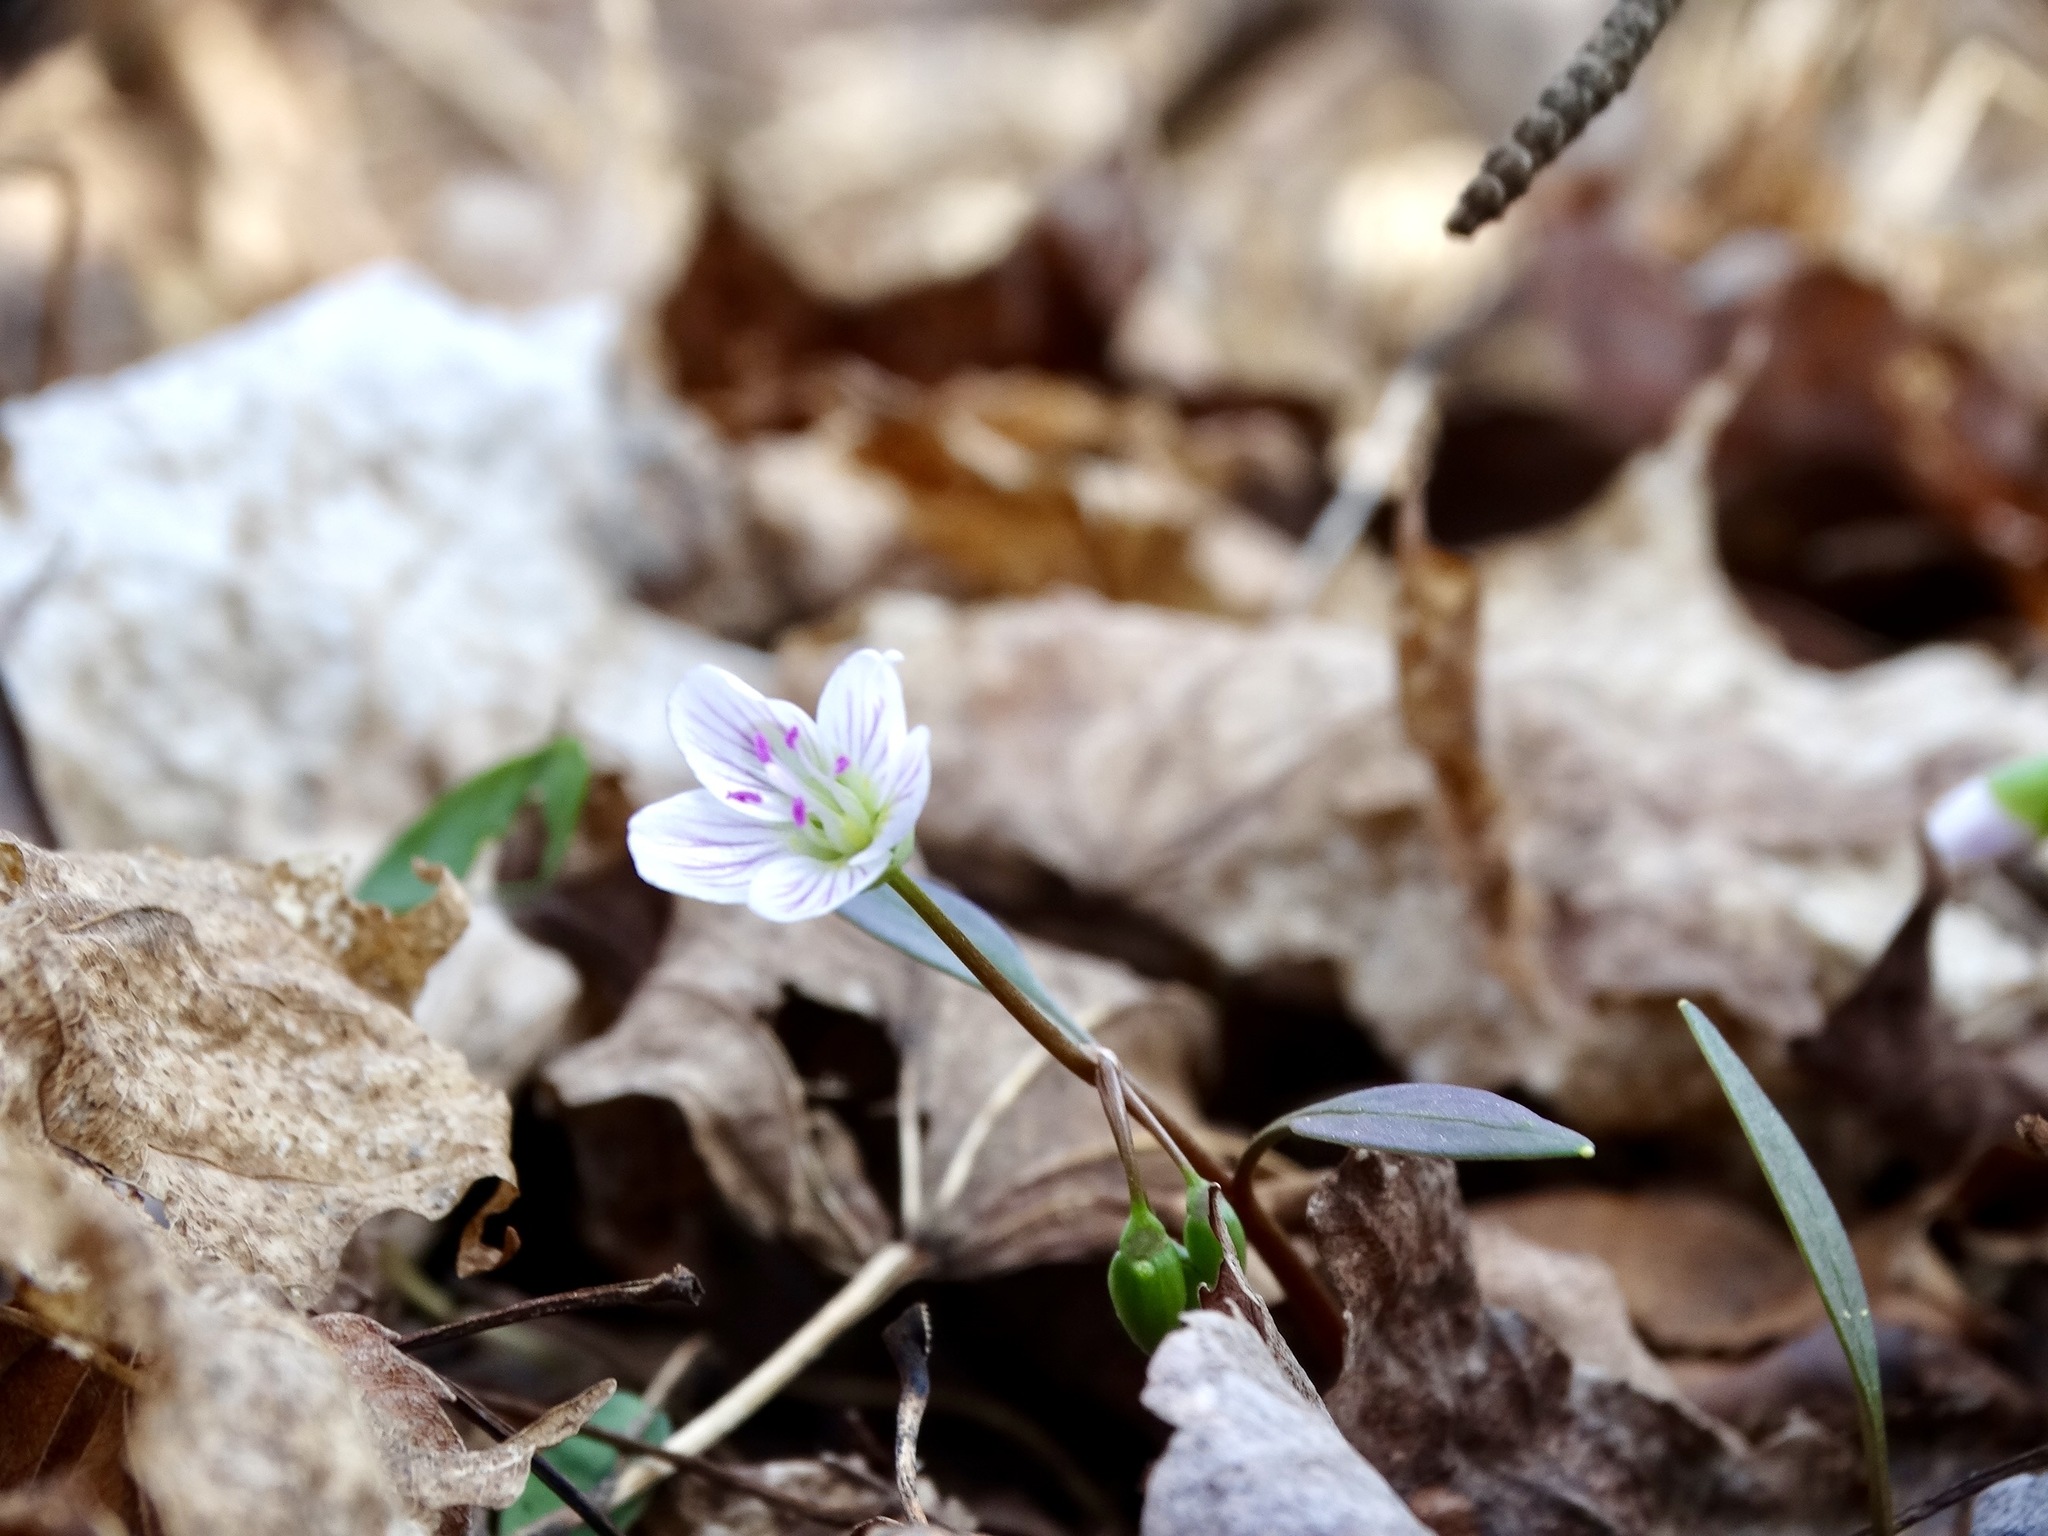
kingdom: Plantae
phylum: Tracheophyta
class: Magnoliopsida
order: Caryophyllales
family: Montiaceae
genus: Claytonia
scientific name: Claytonia caroliniana
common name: Carolina spring beauty
